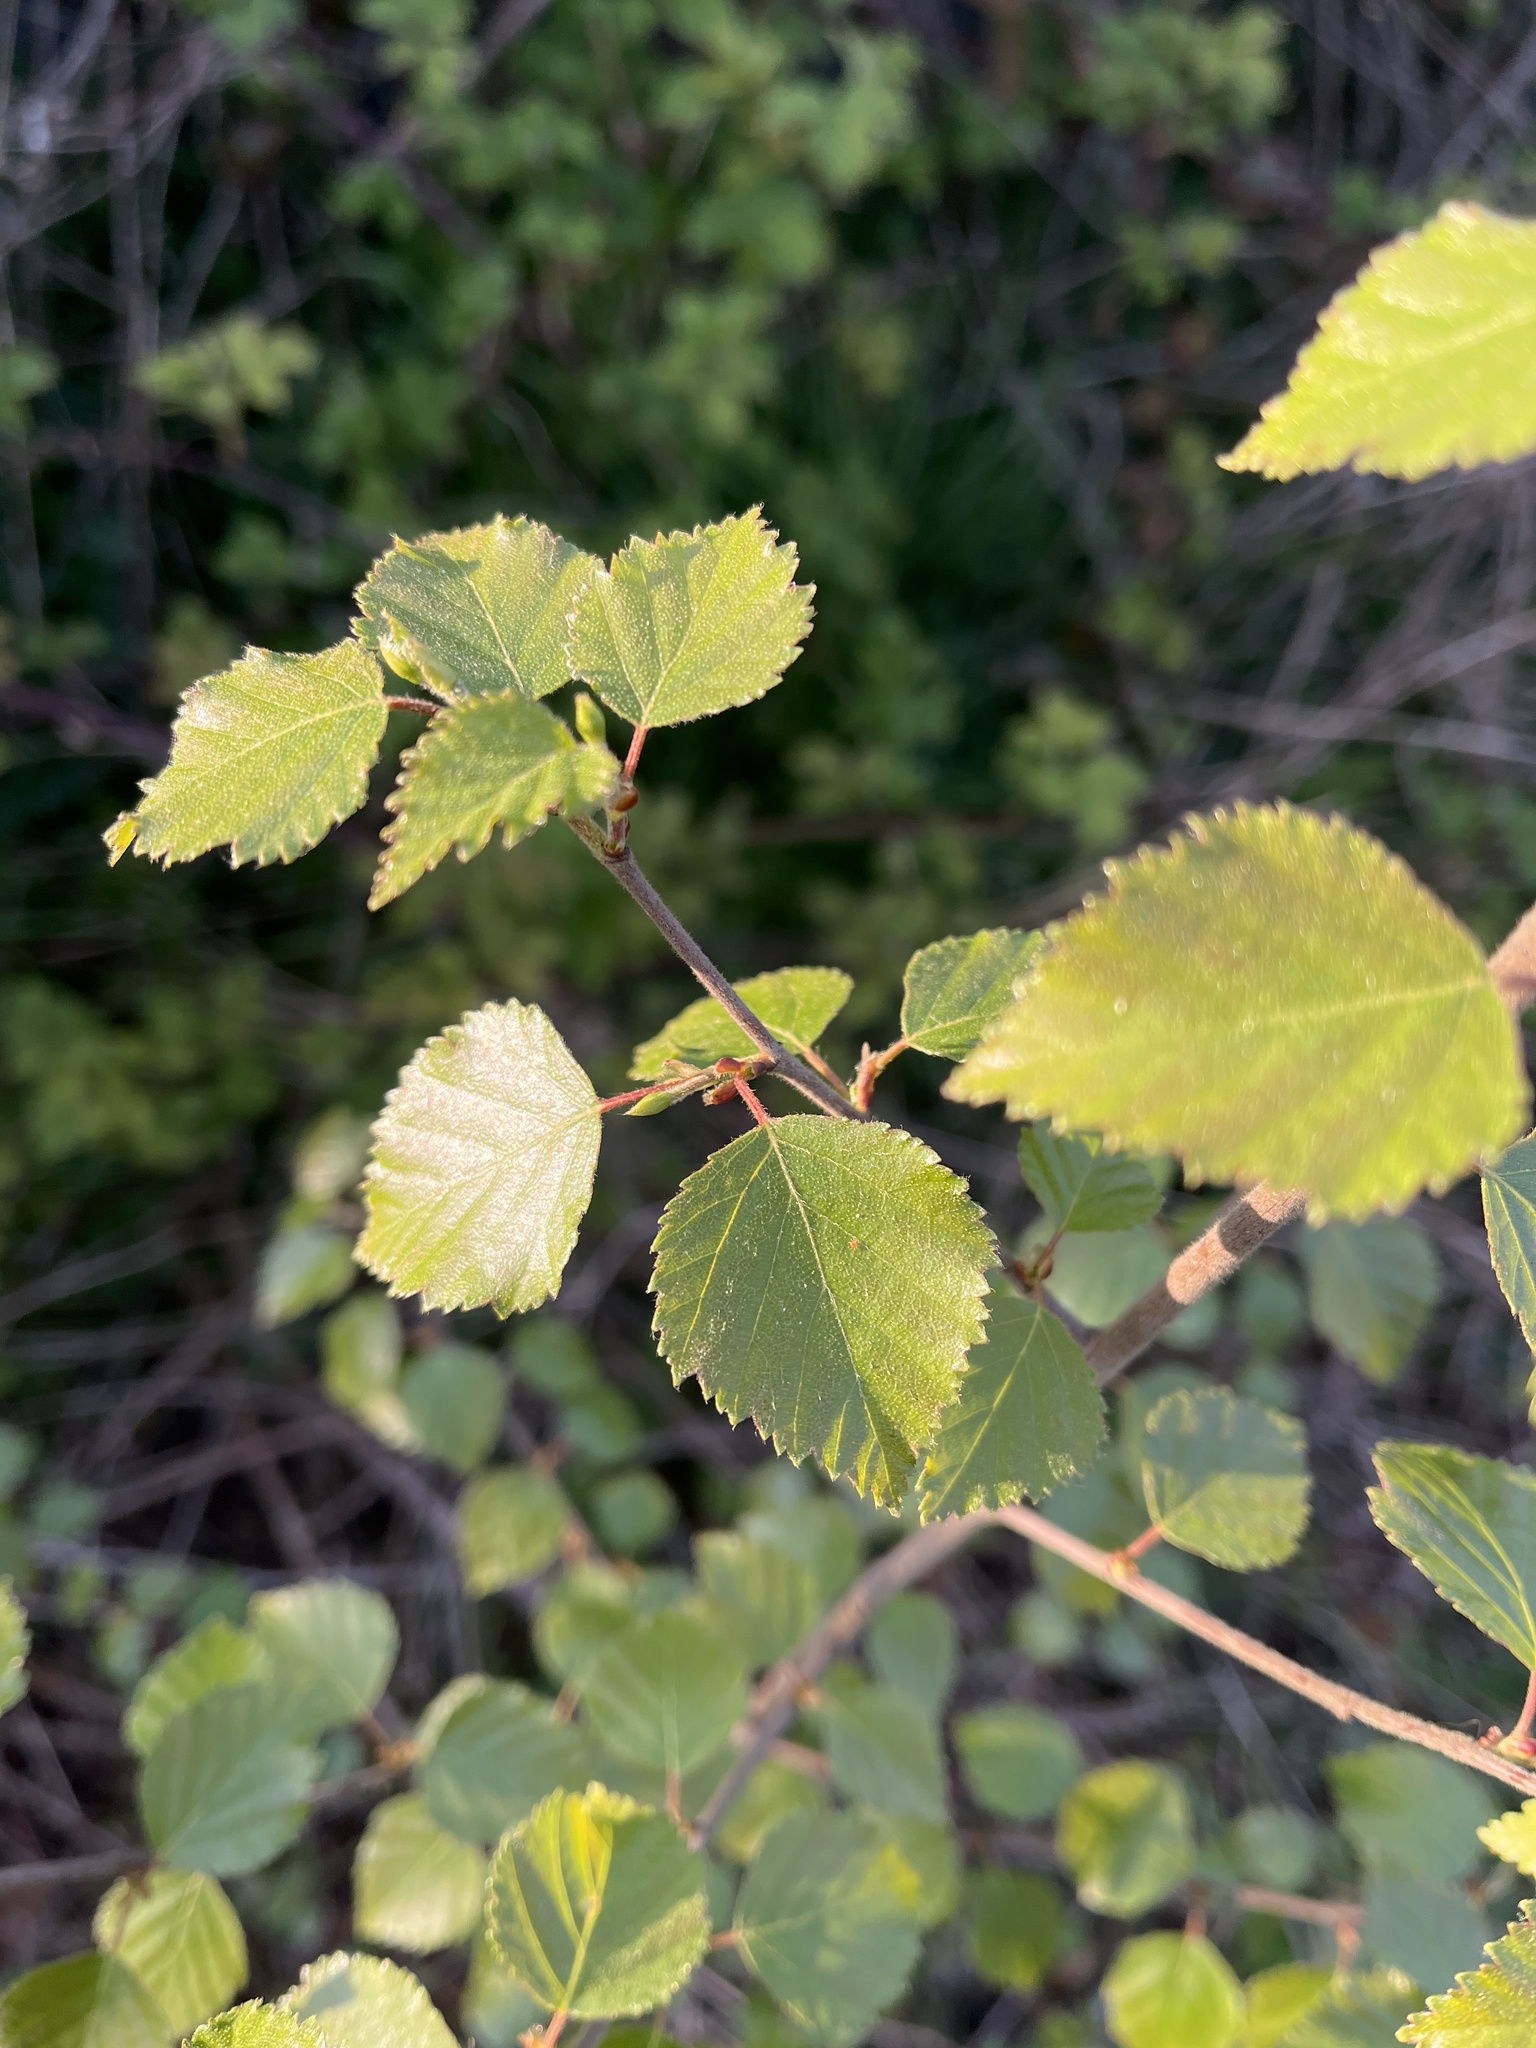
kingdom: Plantae
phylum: Tracheophyta
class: Magnoliopsida
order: Fagales
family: Betulaceae
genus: Betula
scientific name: Betula pubescens
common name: Downy birch
